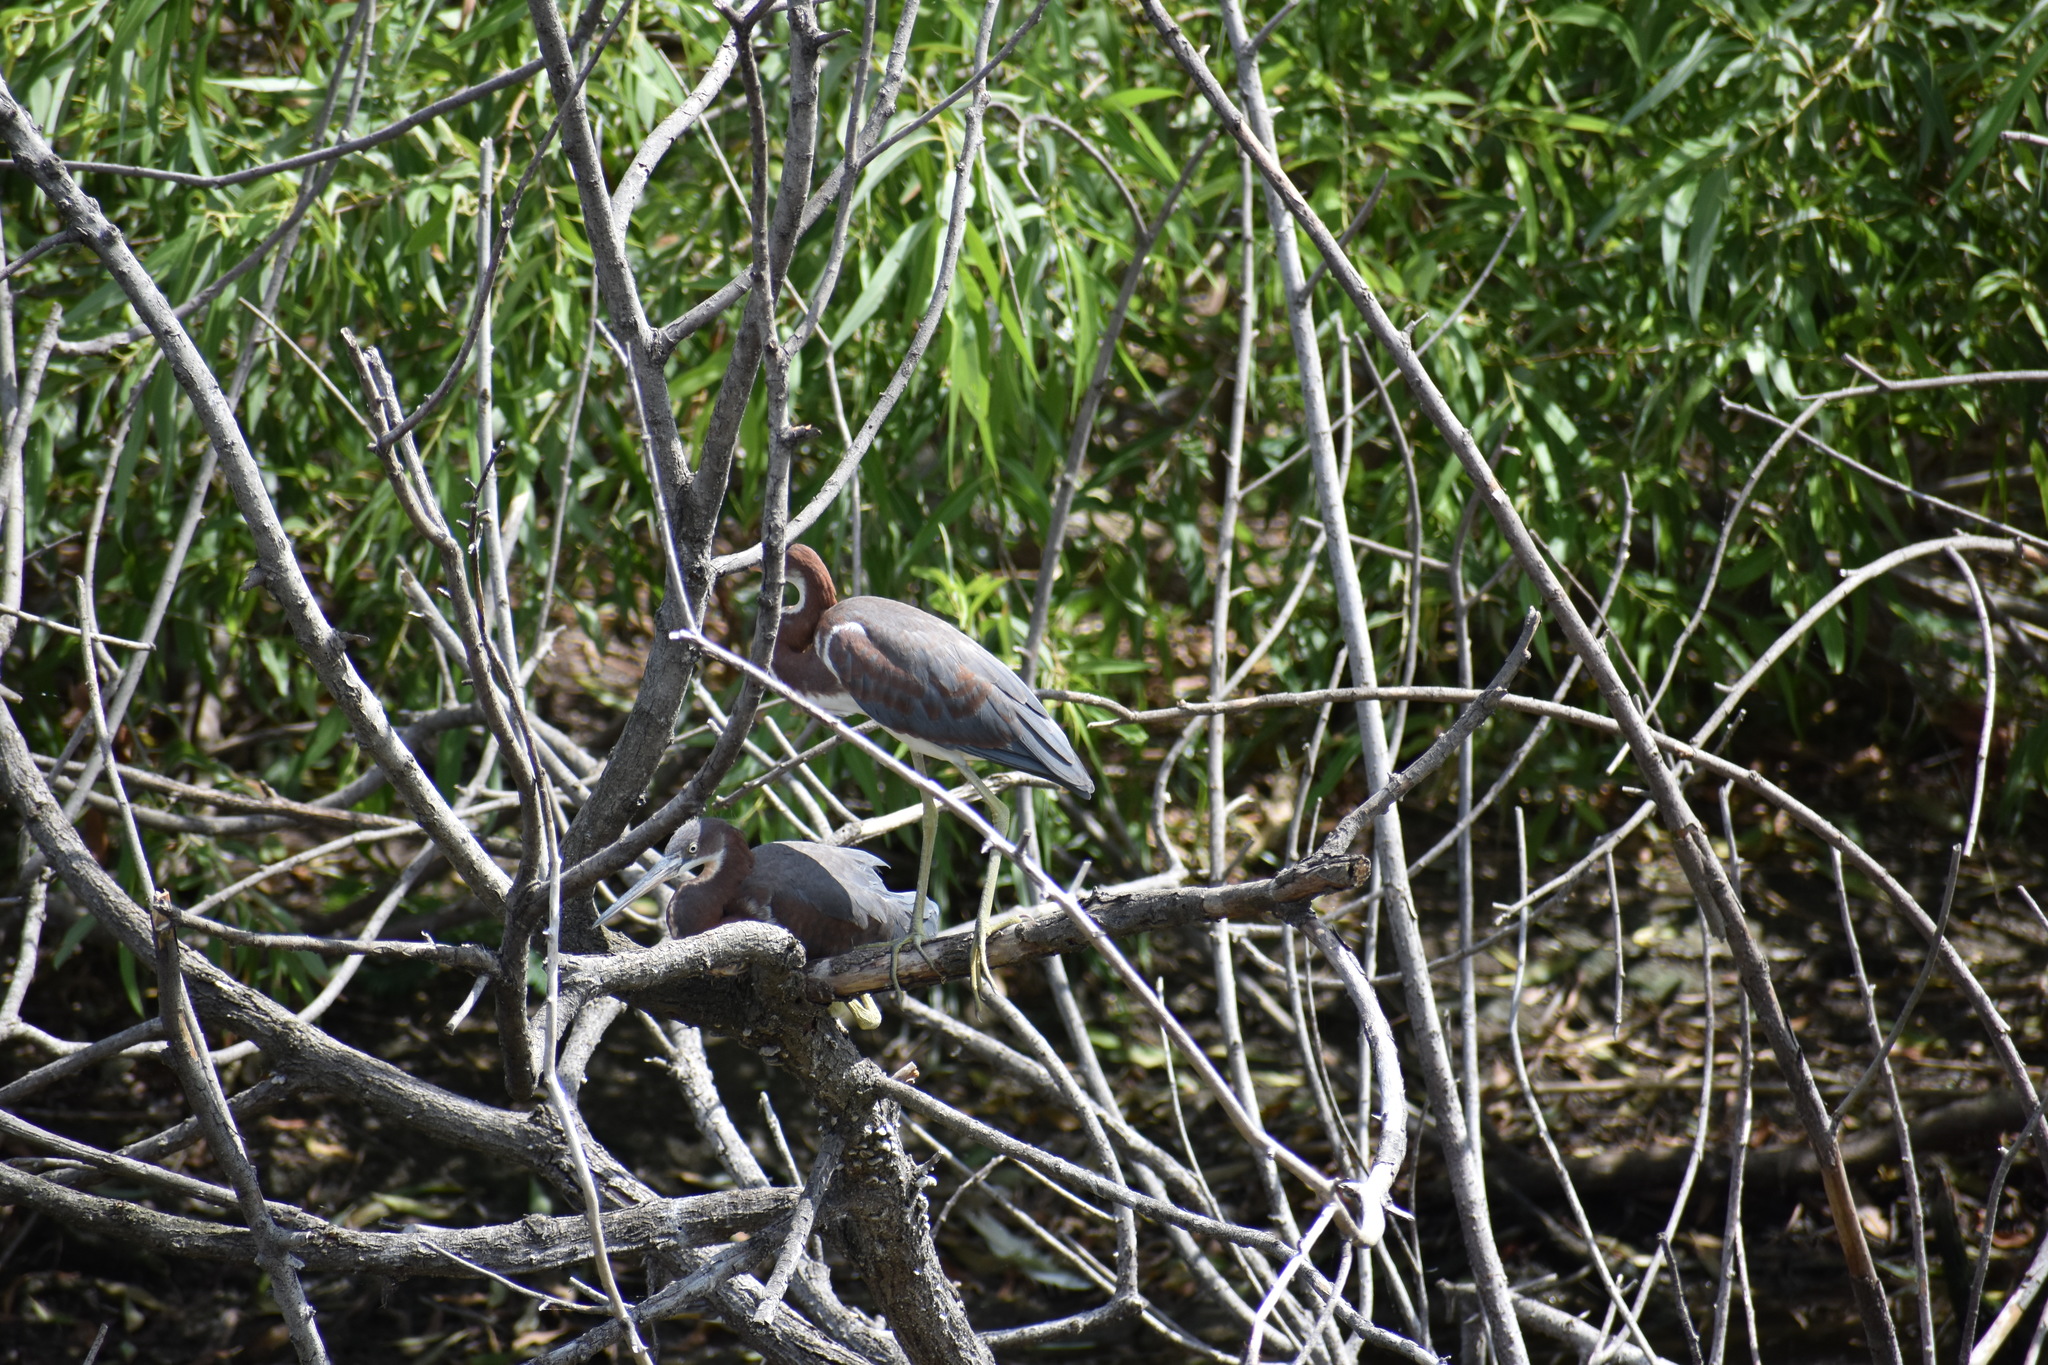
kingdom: Animalia
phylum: Chordata
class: Aves
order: Pelecaniformes
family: Ardeidae
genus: Egretta
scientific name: Egretta tricolor
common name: Tricolored heron
